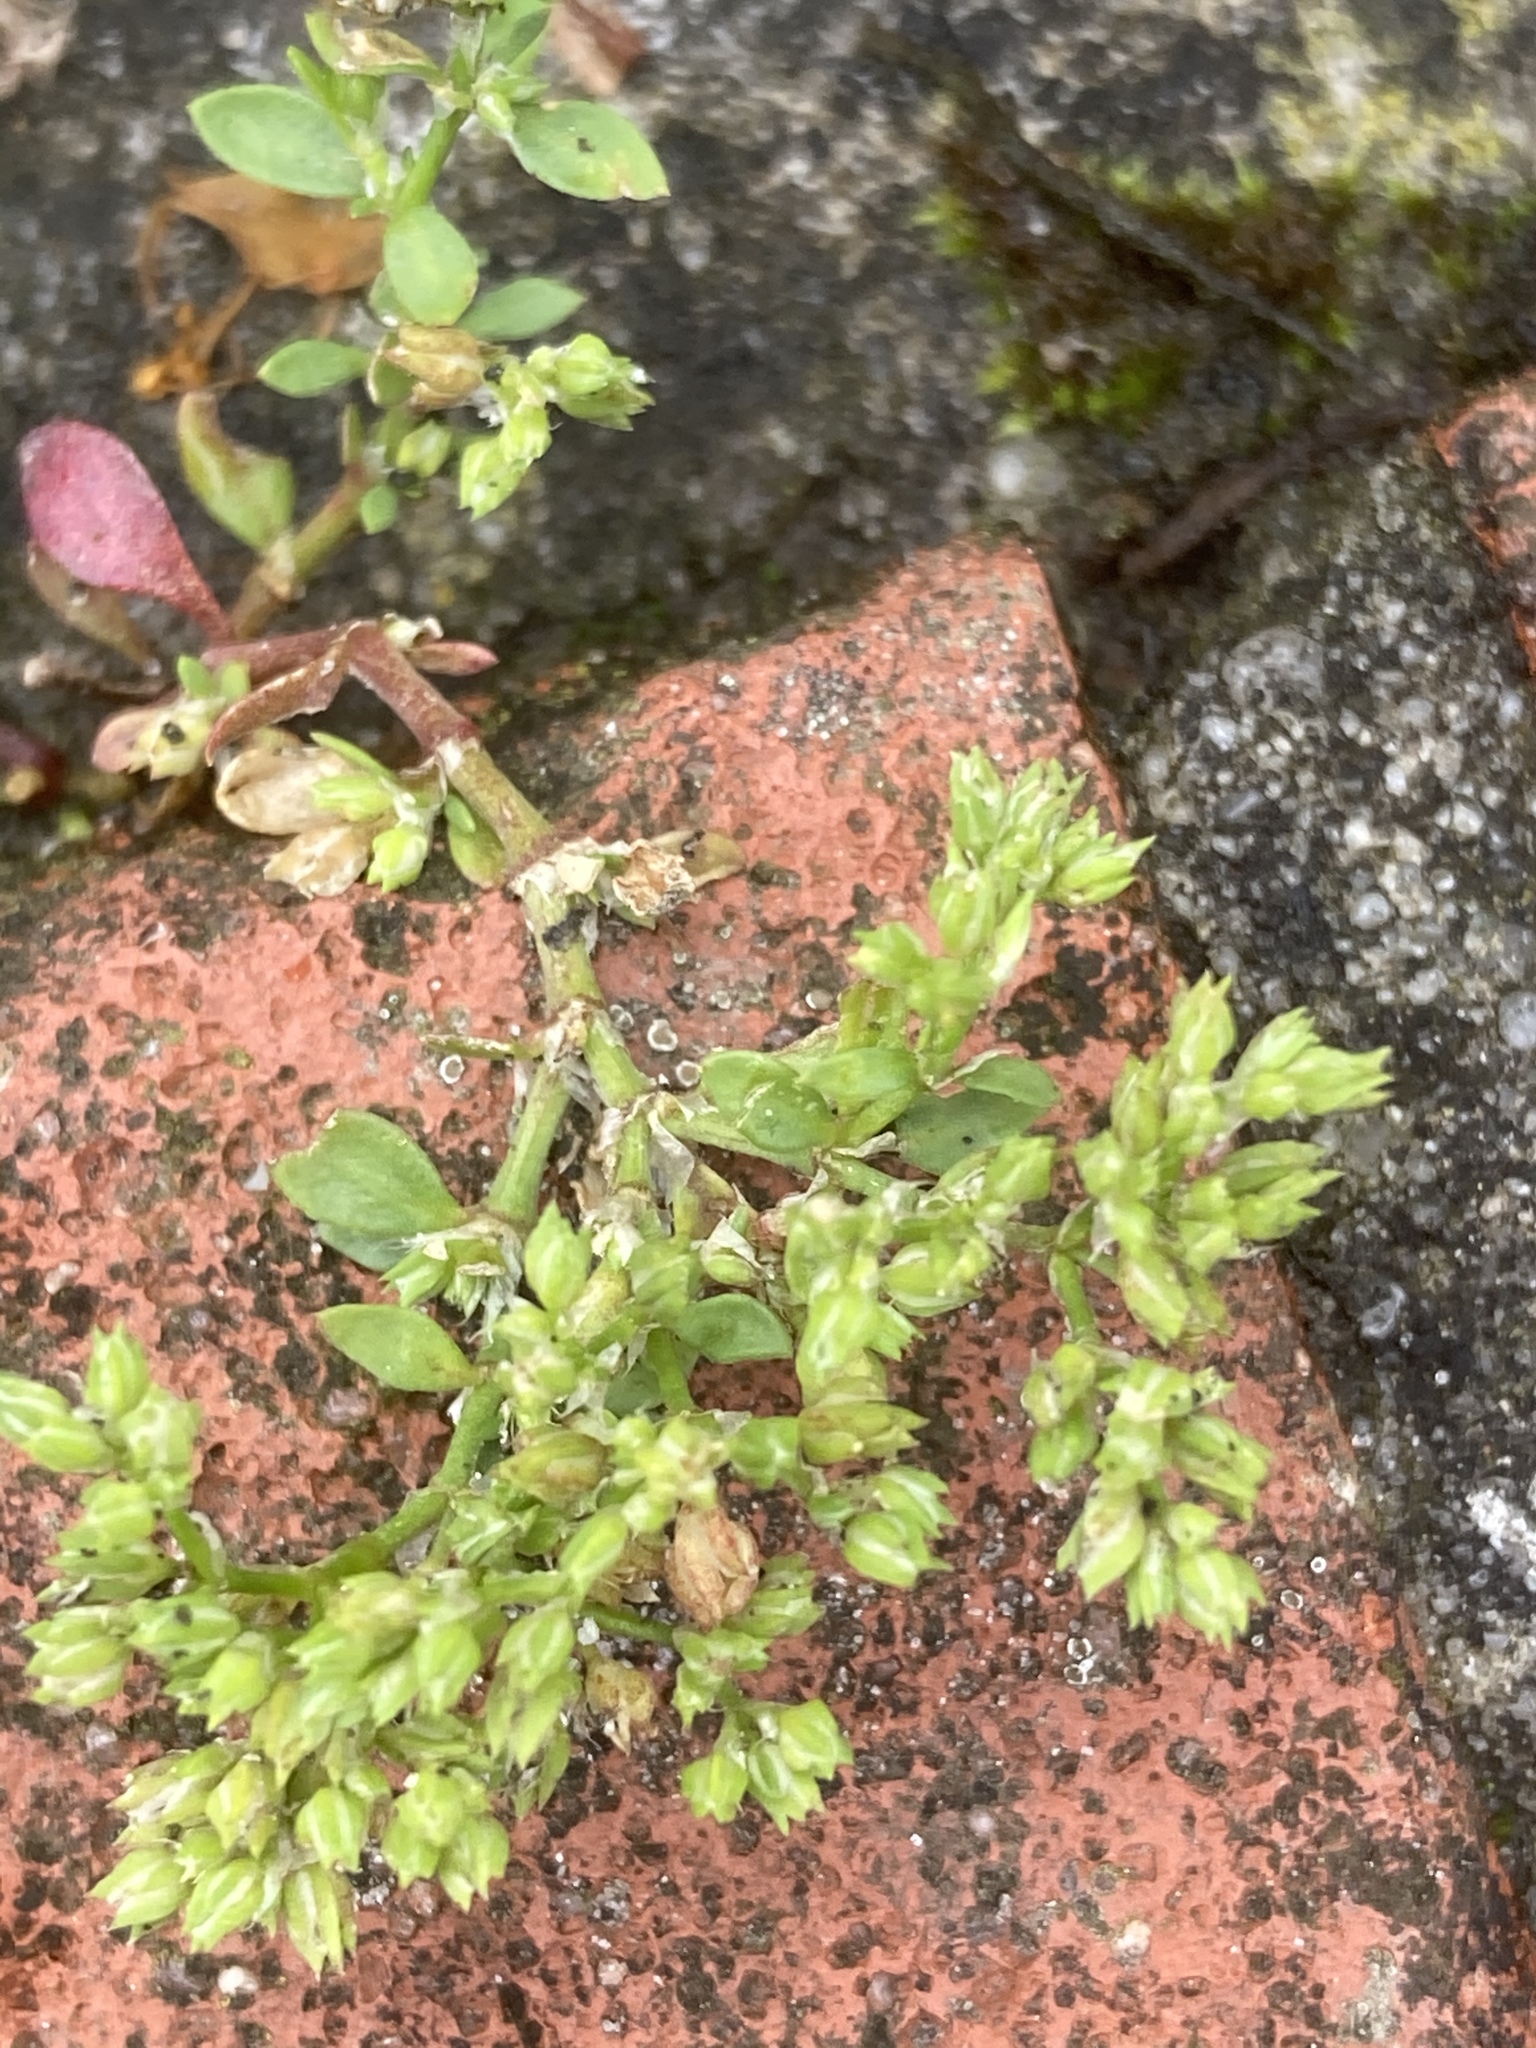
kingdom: Plantae
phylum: Tracheophyta
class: Magnoliopsida
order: Caryophyllales
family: Caryophyllaceae
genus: Polycarpon
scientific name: Polycarpon tetraphyllum
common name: Four-leaved all-seed
